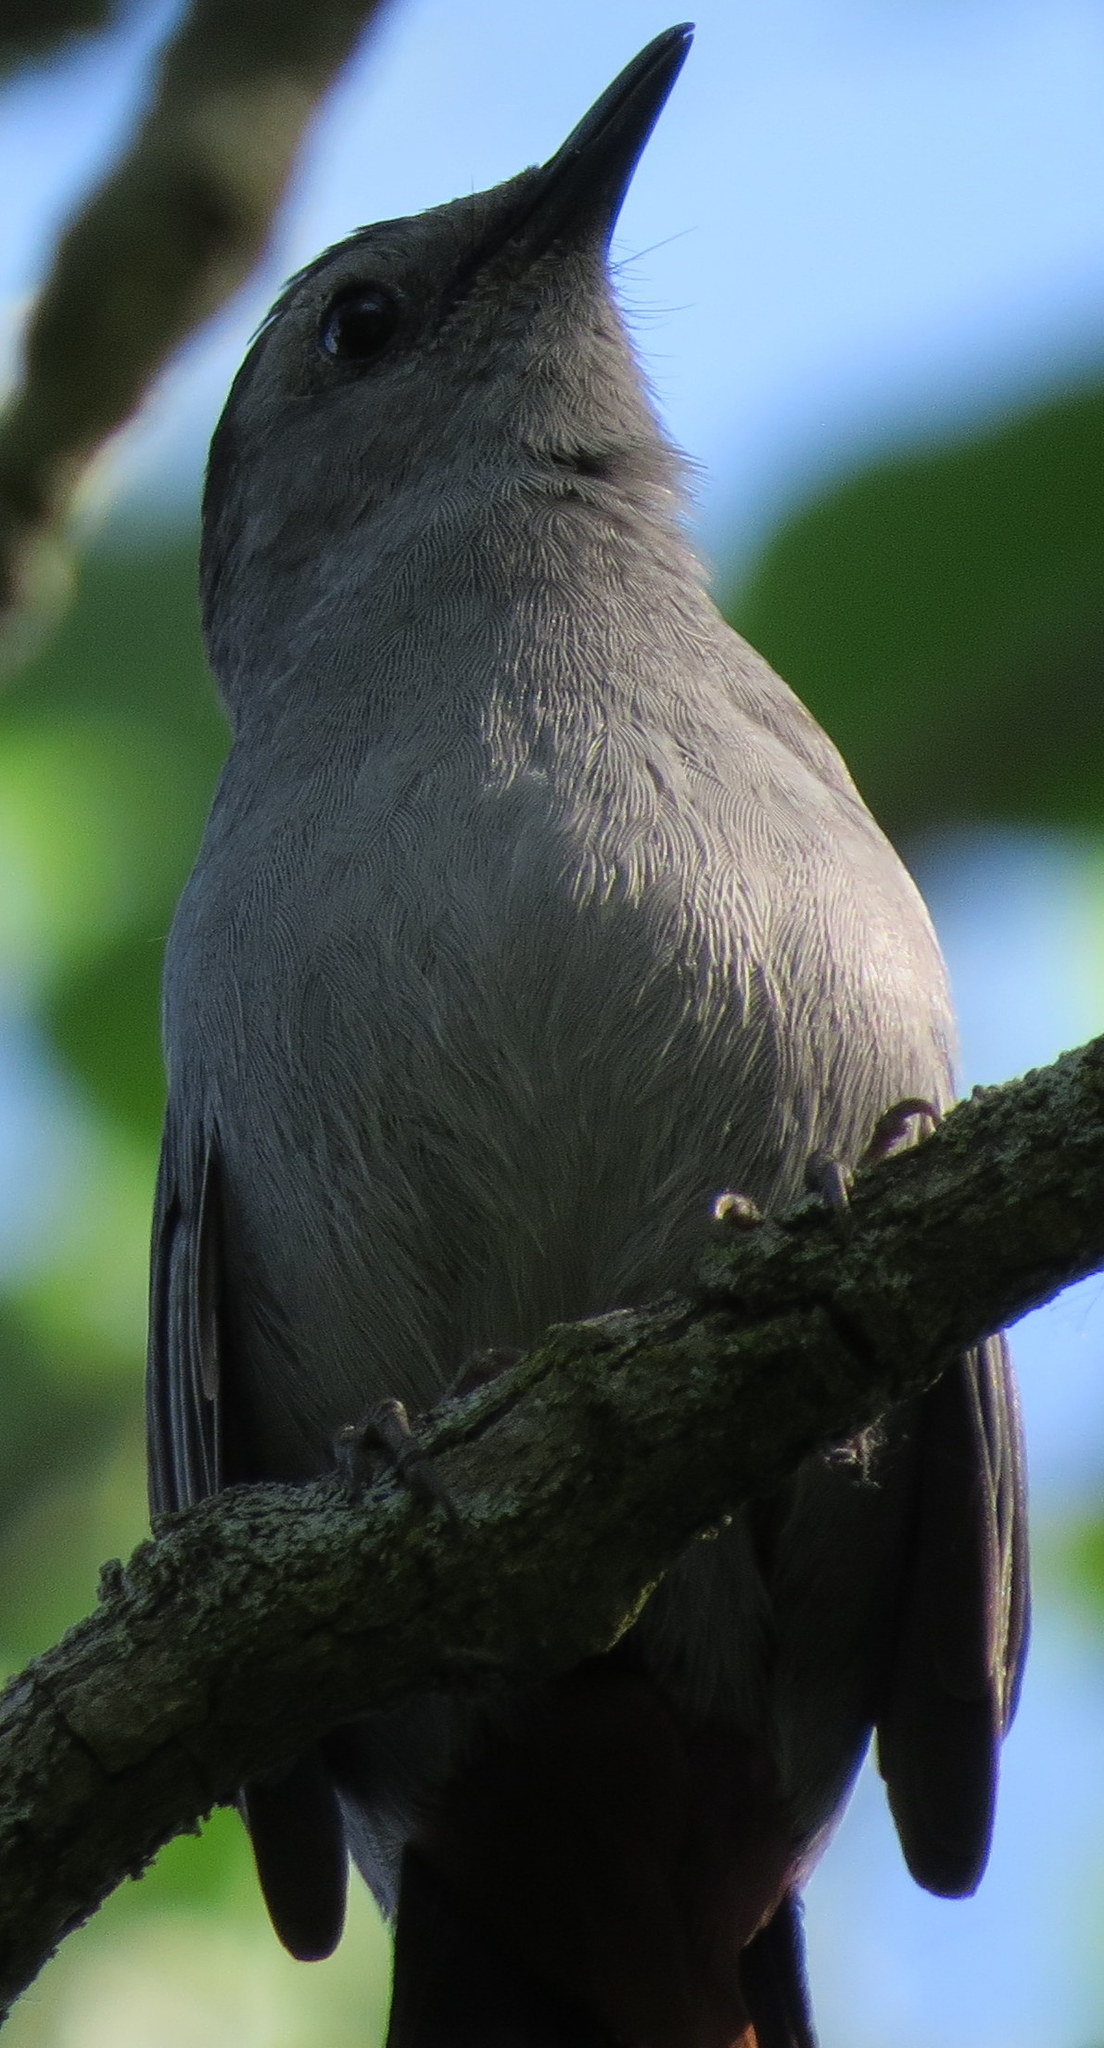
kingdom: Animalia
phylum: Chordata
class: Aves
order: Passeriformes
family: Mimidae
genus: Dumetella
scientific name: Dumetella carolinensis
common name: Gray catbird
